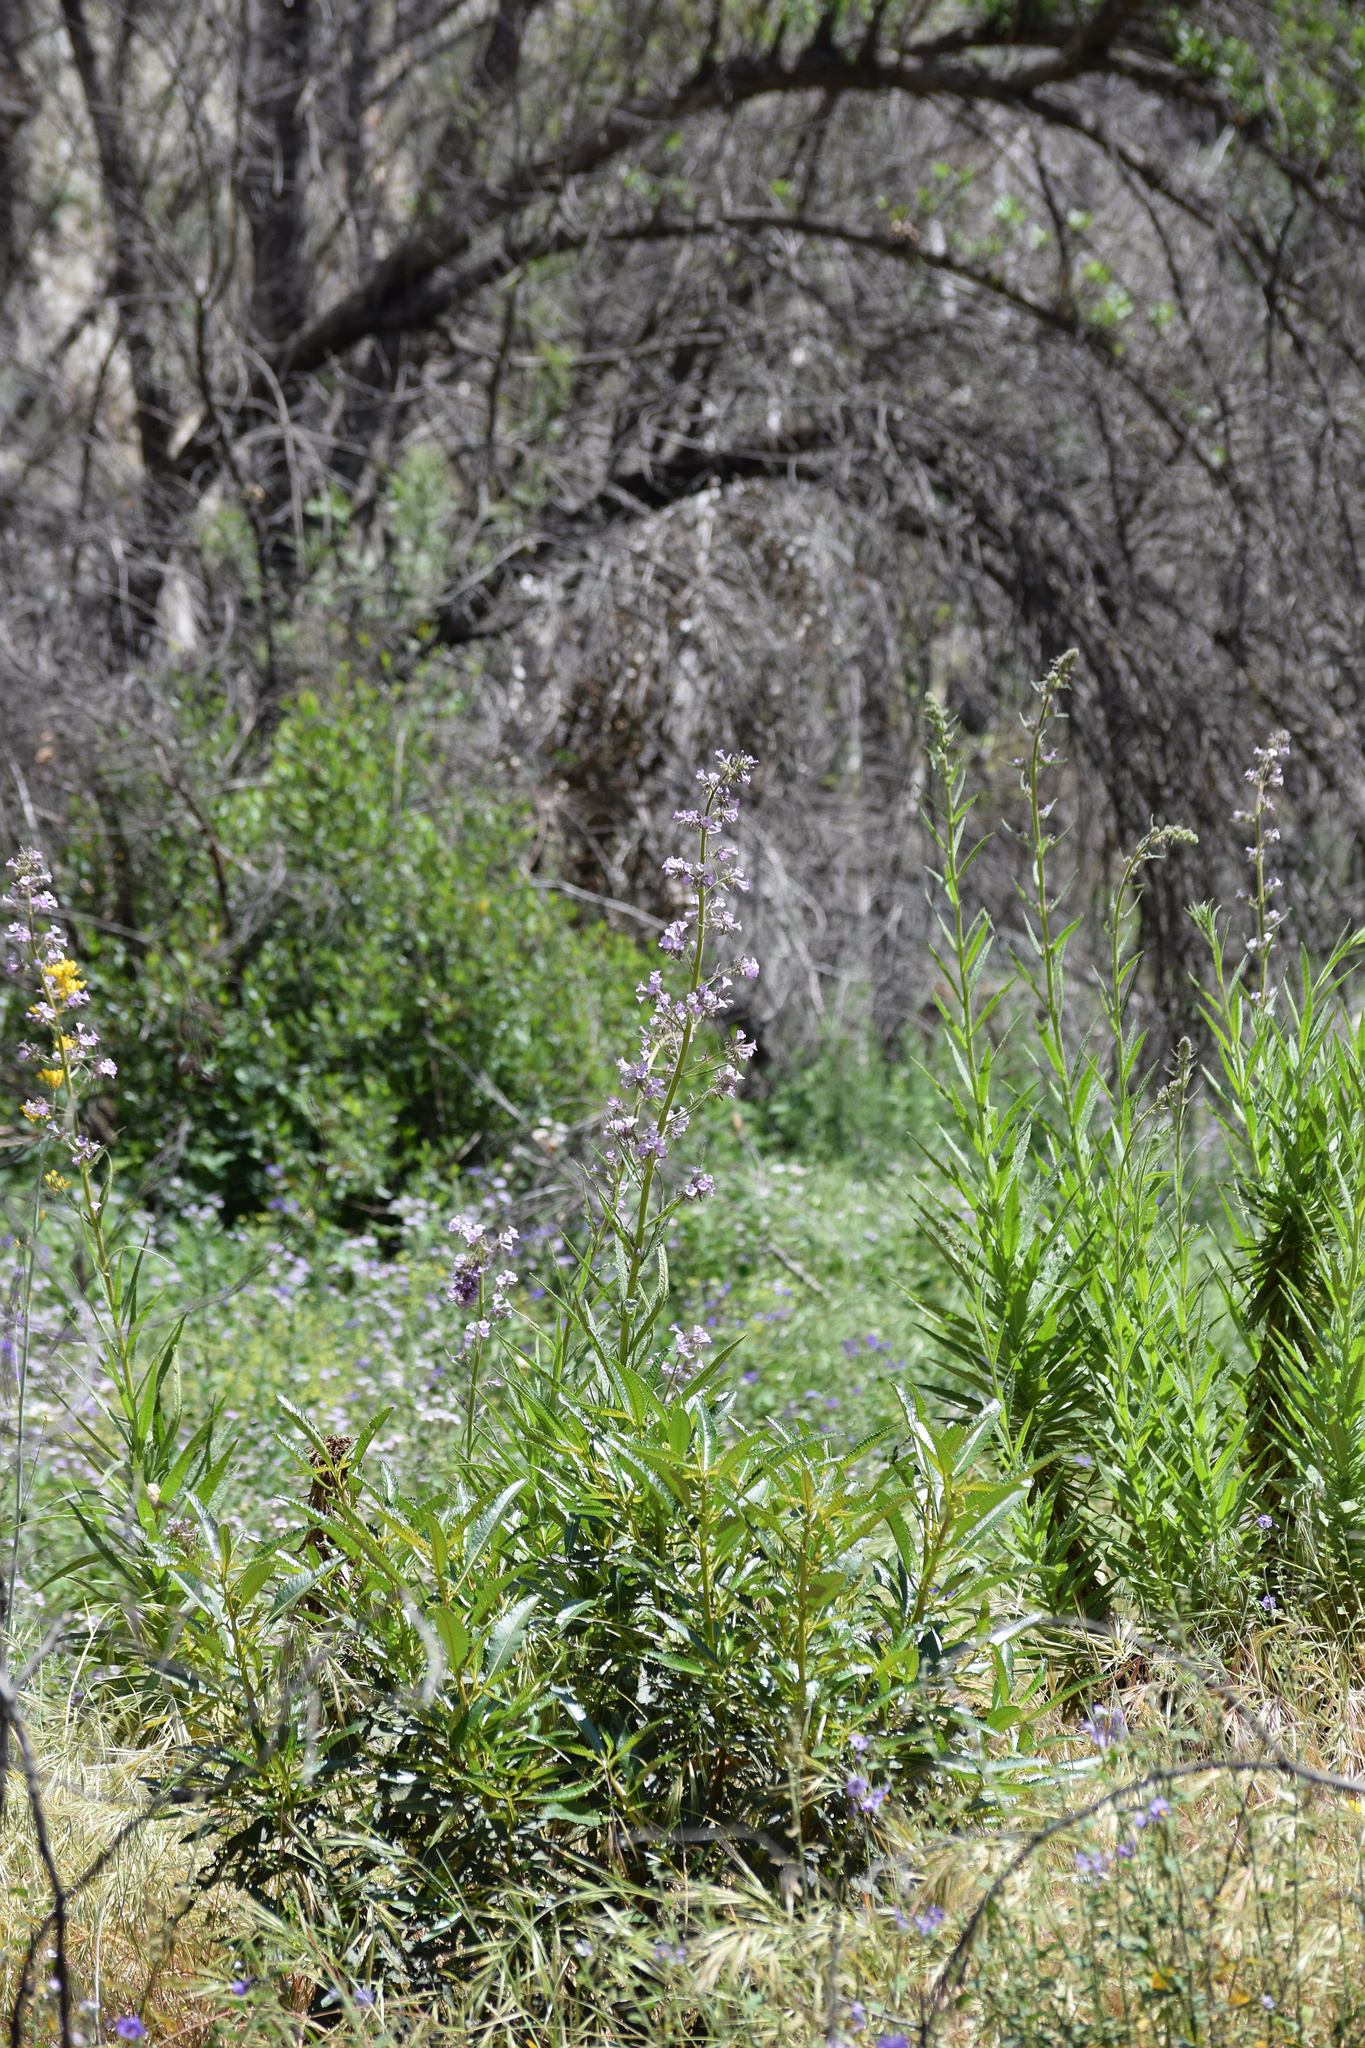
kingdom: Plantae
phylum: Tracheophyta
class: Magnoliopsida
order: Boraginales
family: Namaceae
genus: Turricula
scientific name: Turricula parryi
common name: Poodle-dog-bush
